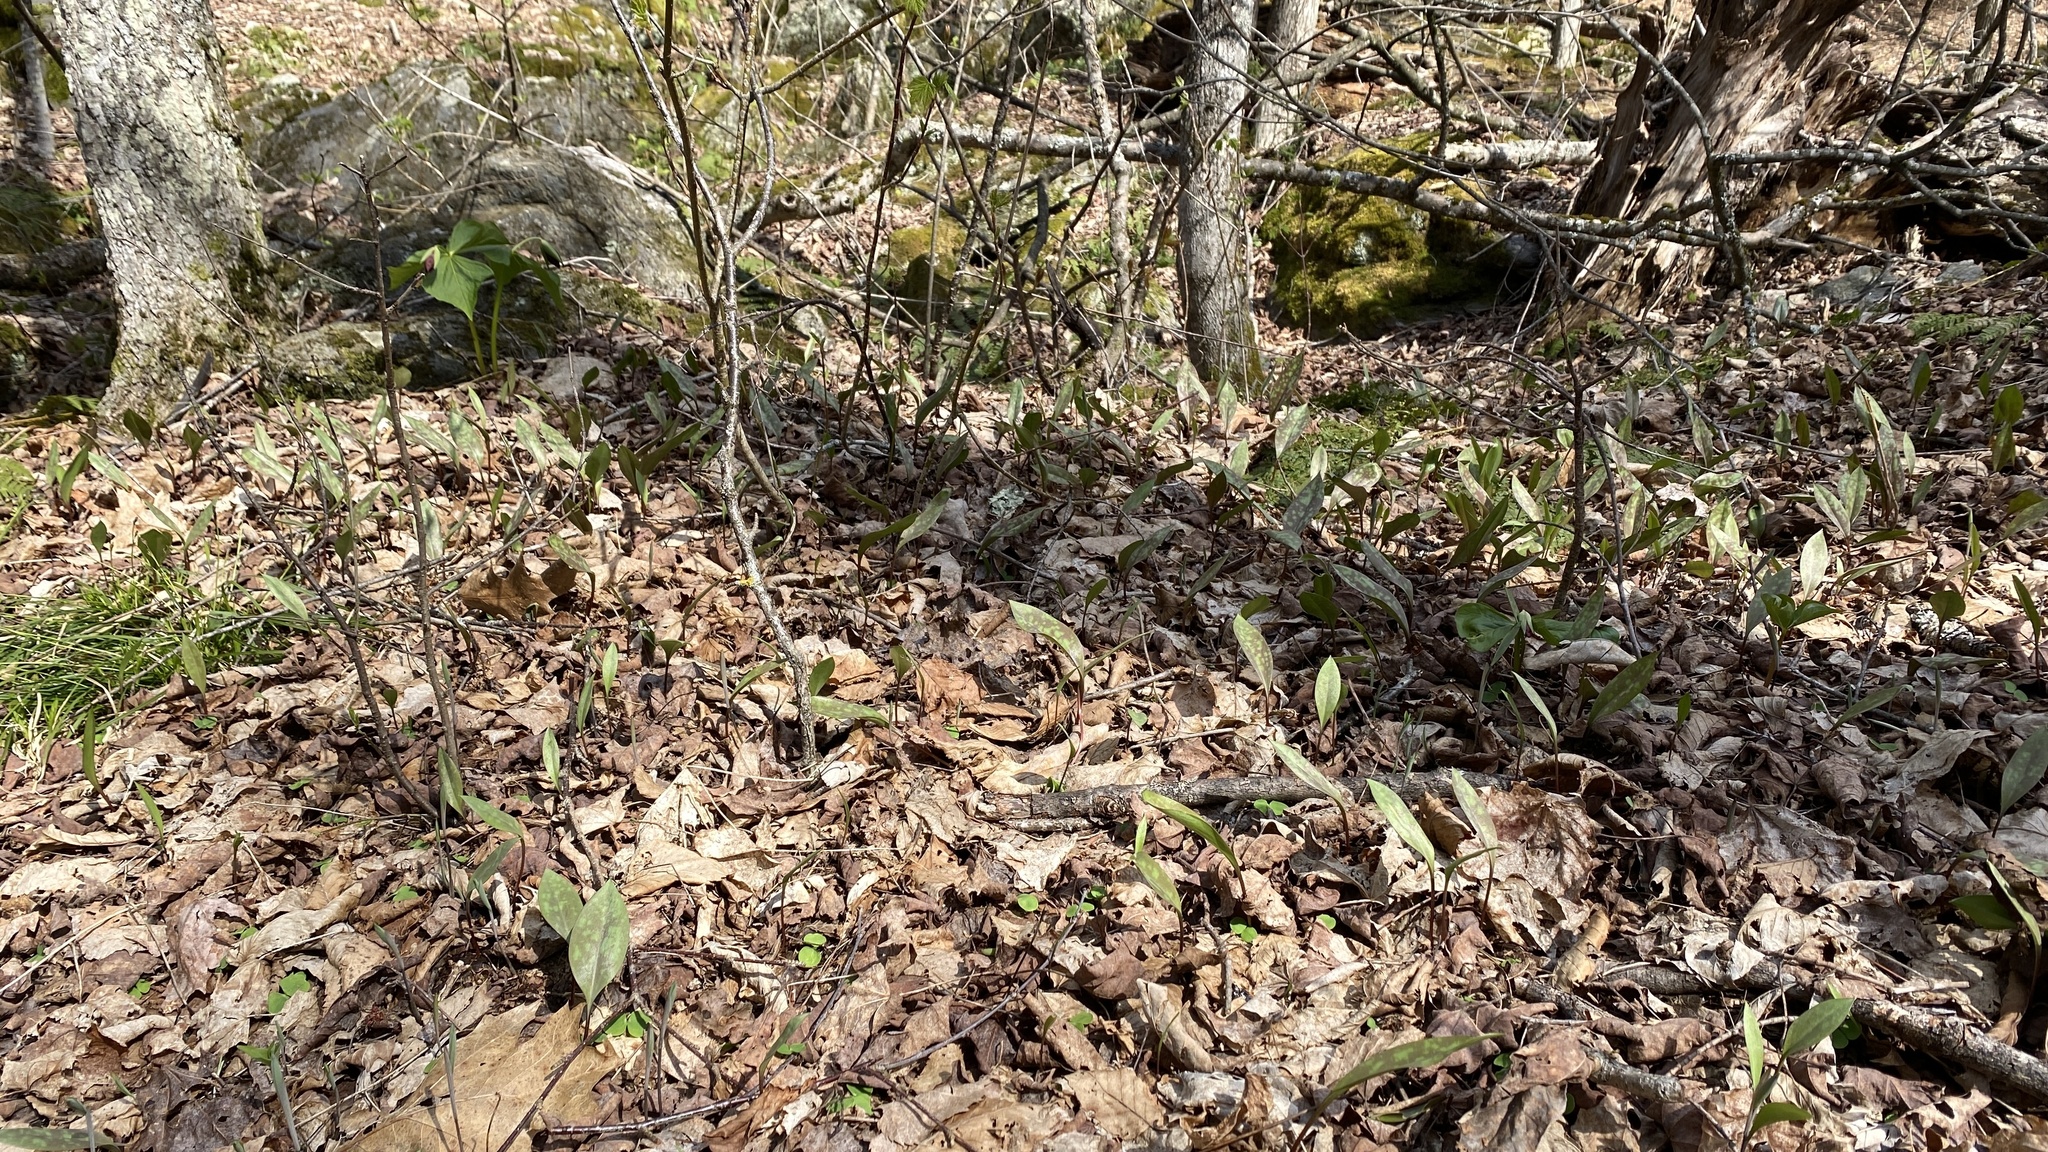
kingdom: Plantae
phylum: Tracheophyta
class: Liliopsida
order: Liliales
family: Liliaceae
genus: Erythronium
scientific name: Erythronium americanum
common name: Yellow adder's-tongue
